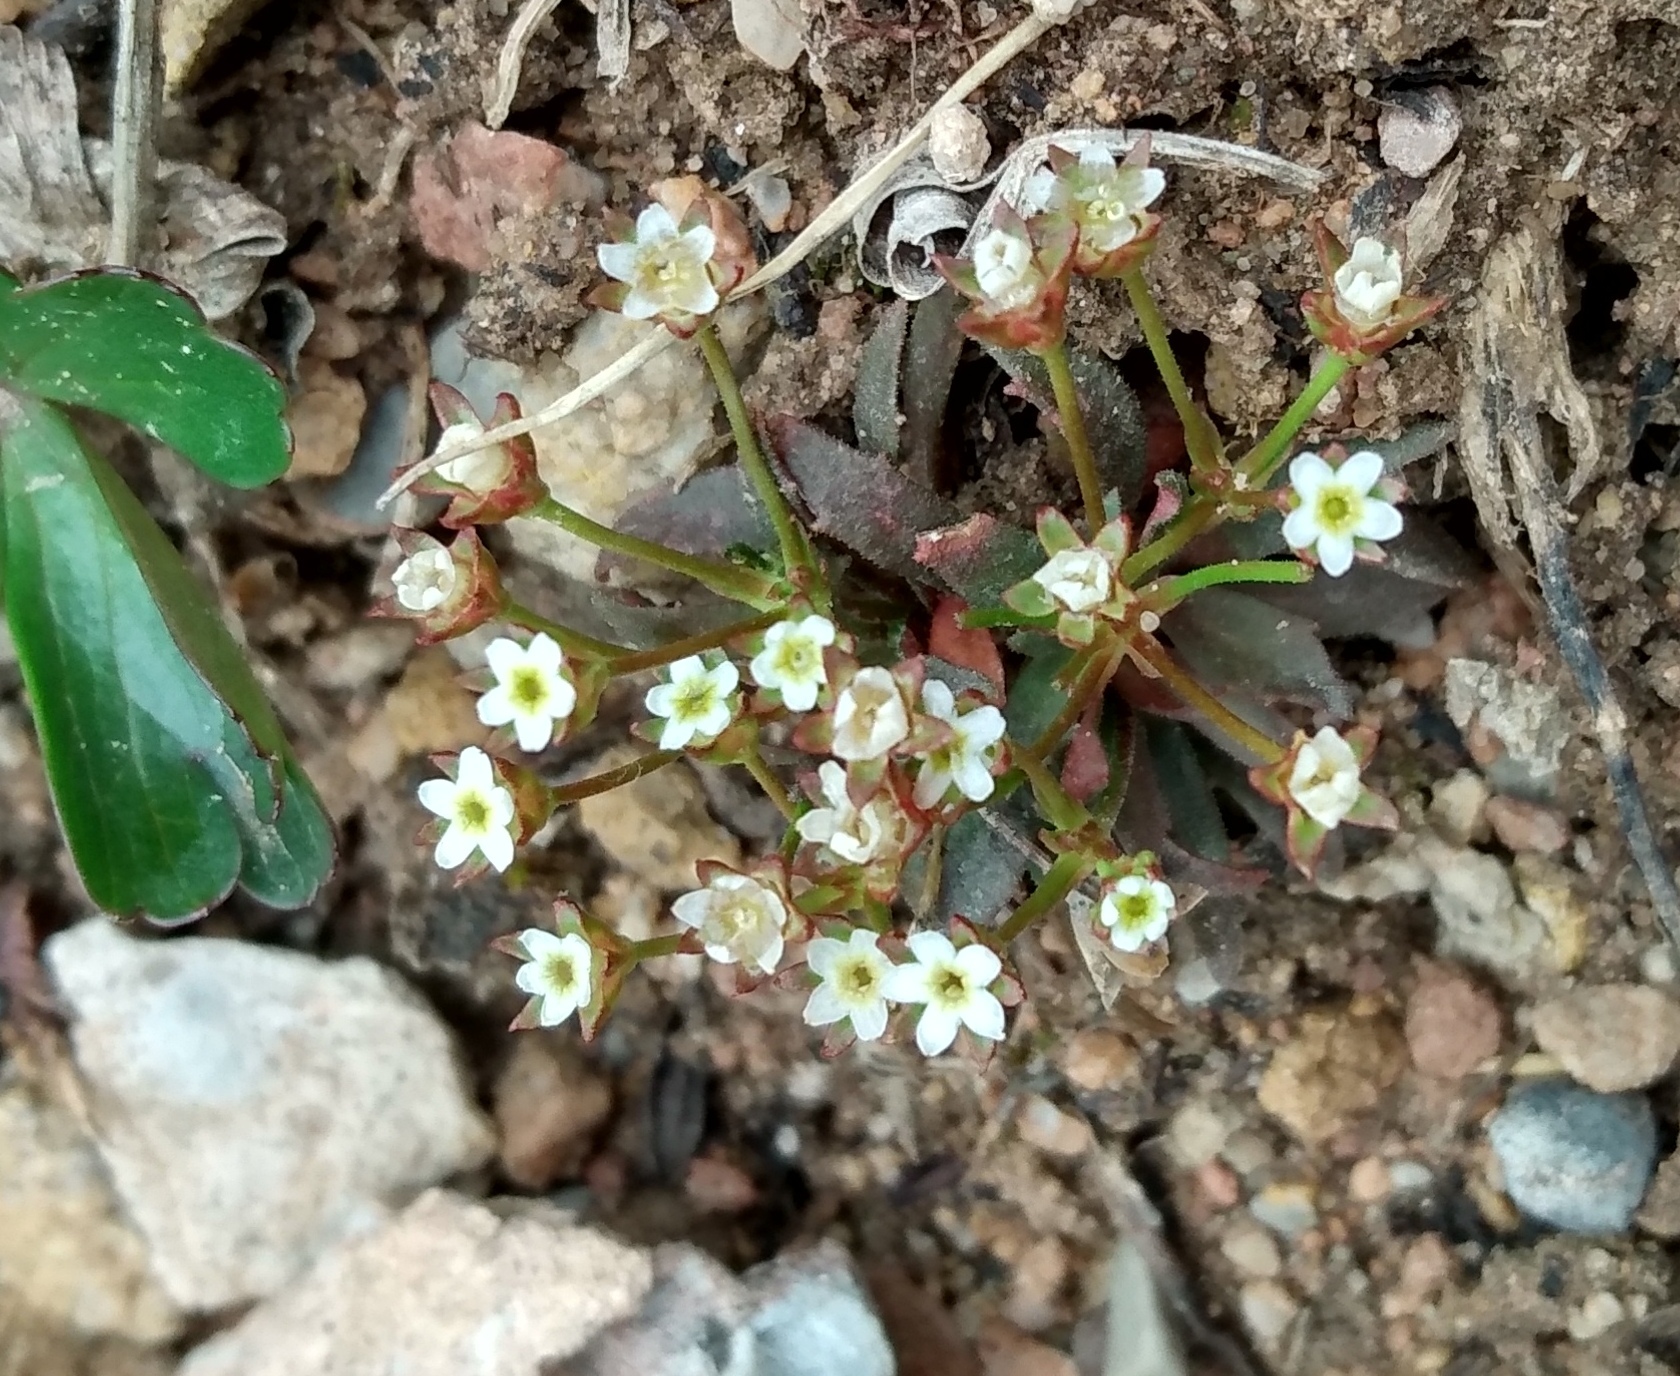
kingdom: Plantae
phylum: Tracheophyta
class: Magnoliopsida
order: Ericales
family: Primulaceae
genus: Androsace
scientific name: Androsace septentrionalis
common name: Hairy northern fairy-candelabra
